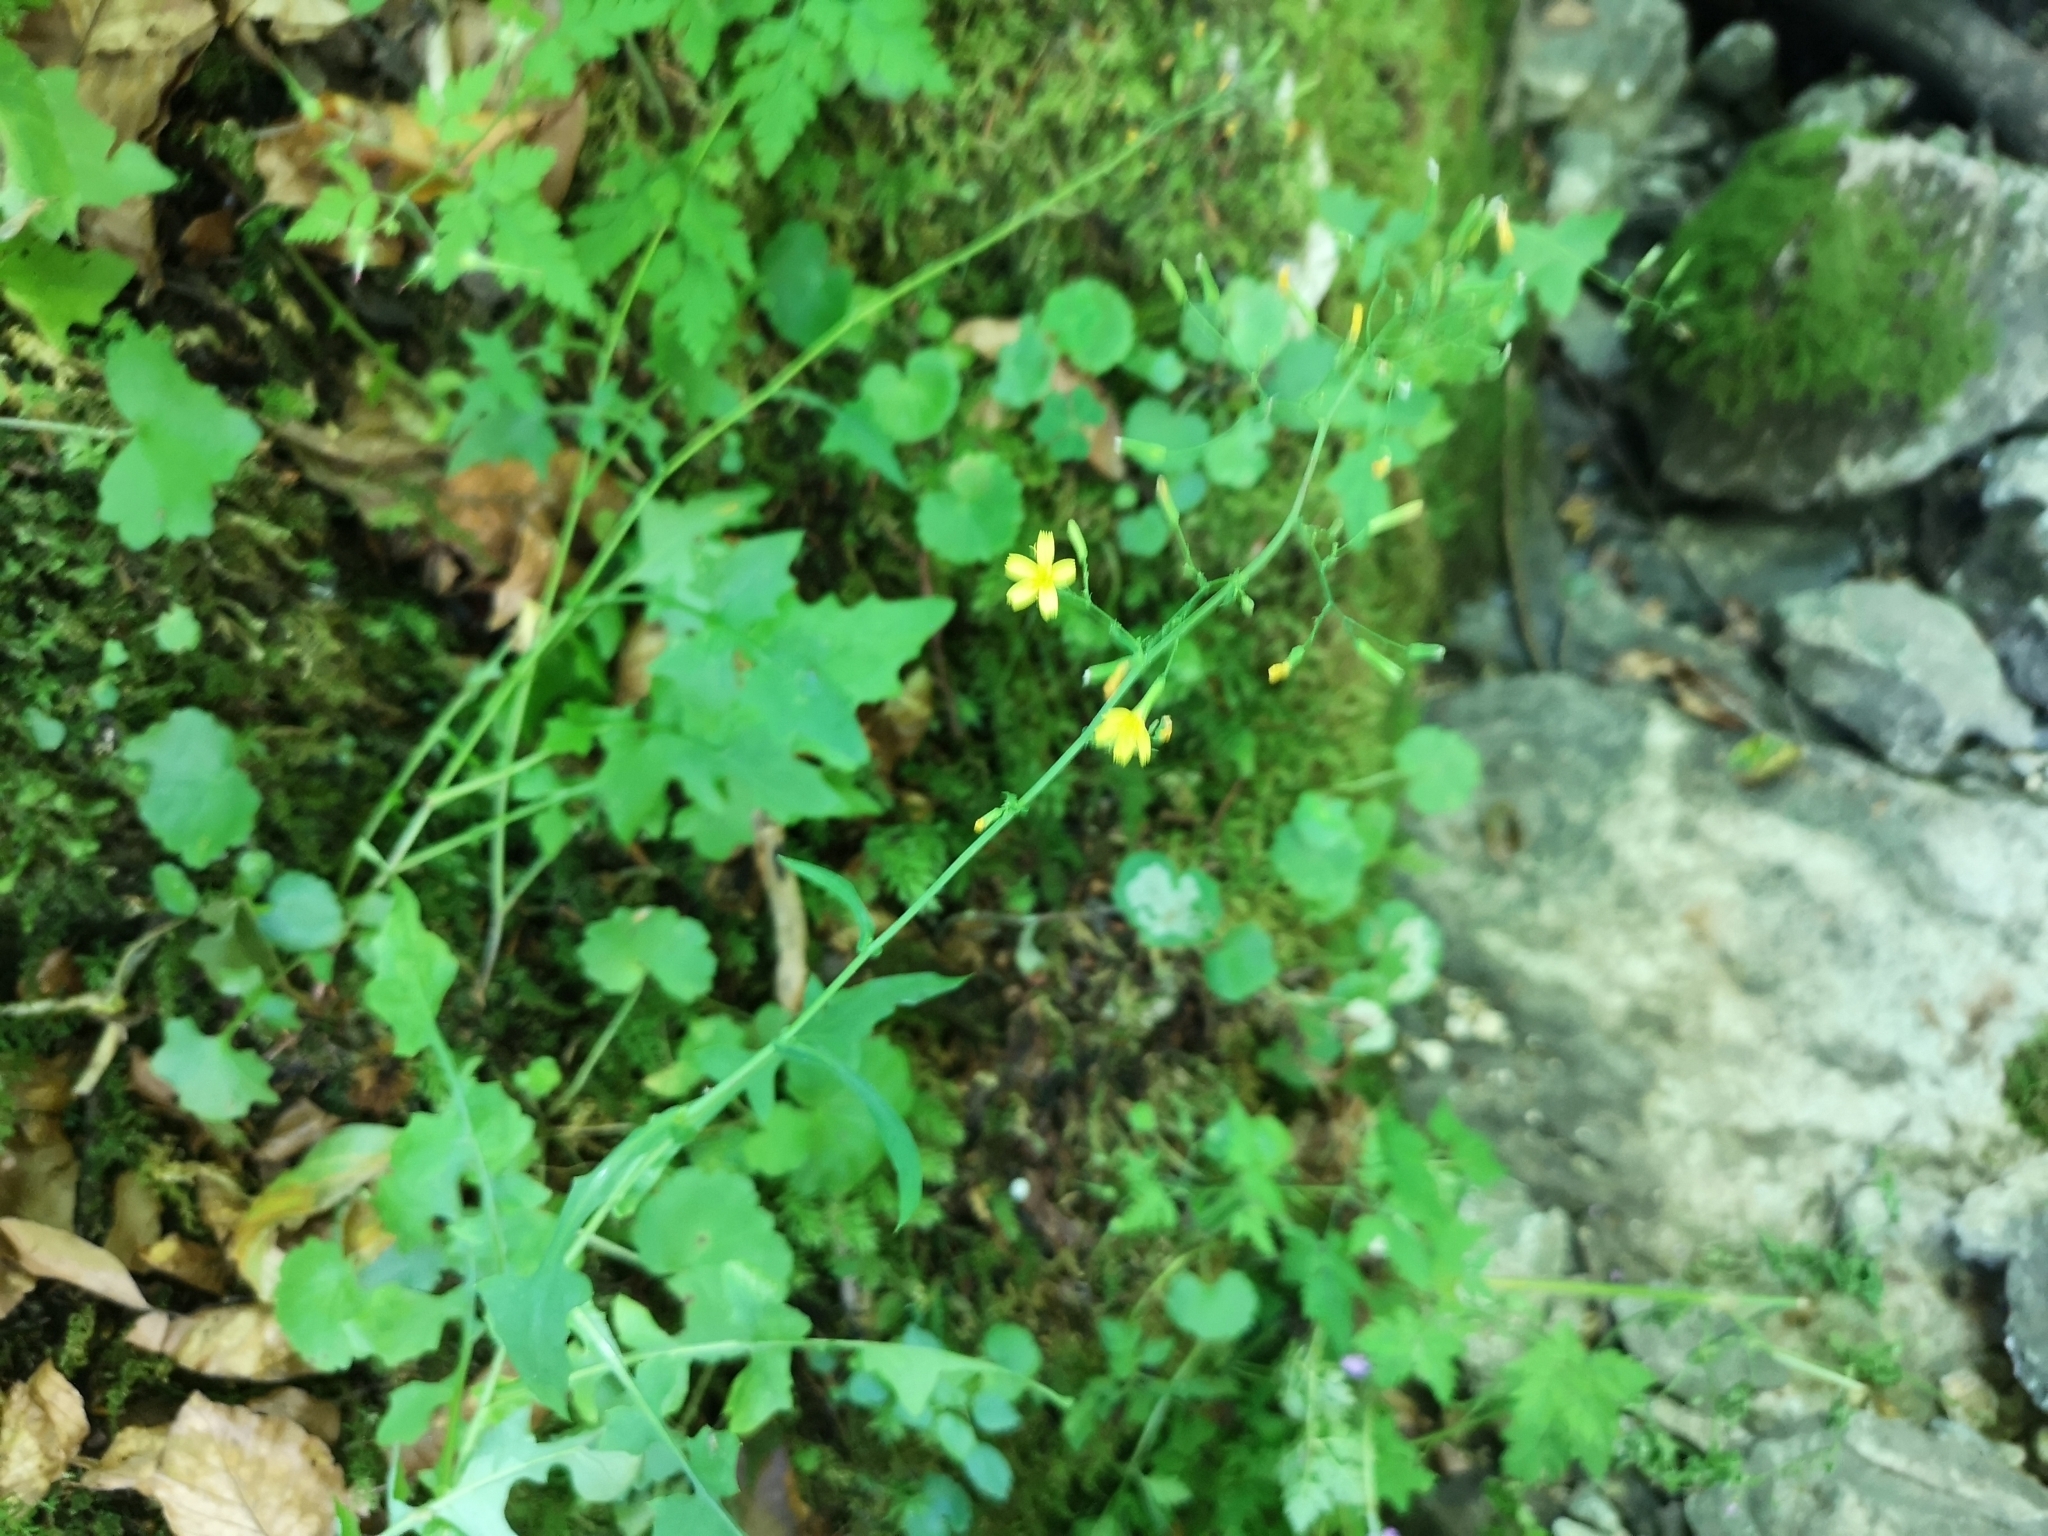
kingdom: Plantae
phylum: Tracheophyta
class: Magnoliopsida
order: Asterales
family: Asteraceae
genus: Mycelis
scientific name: Mycelis muralis
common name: Wall lettuce
